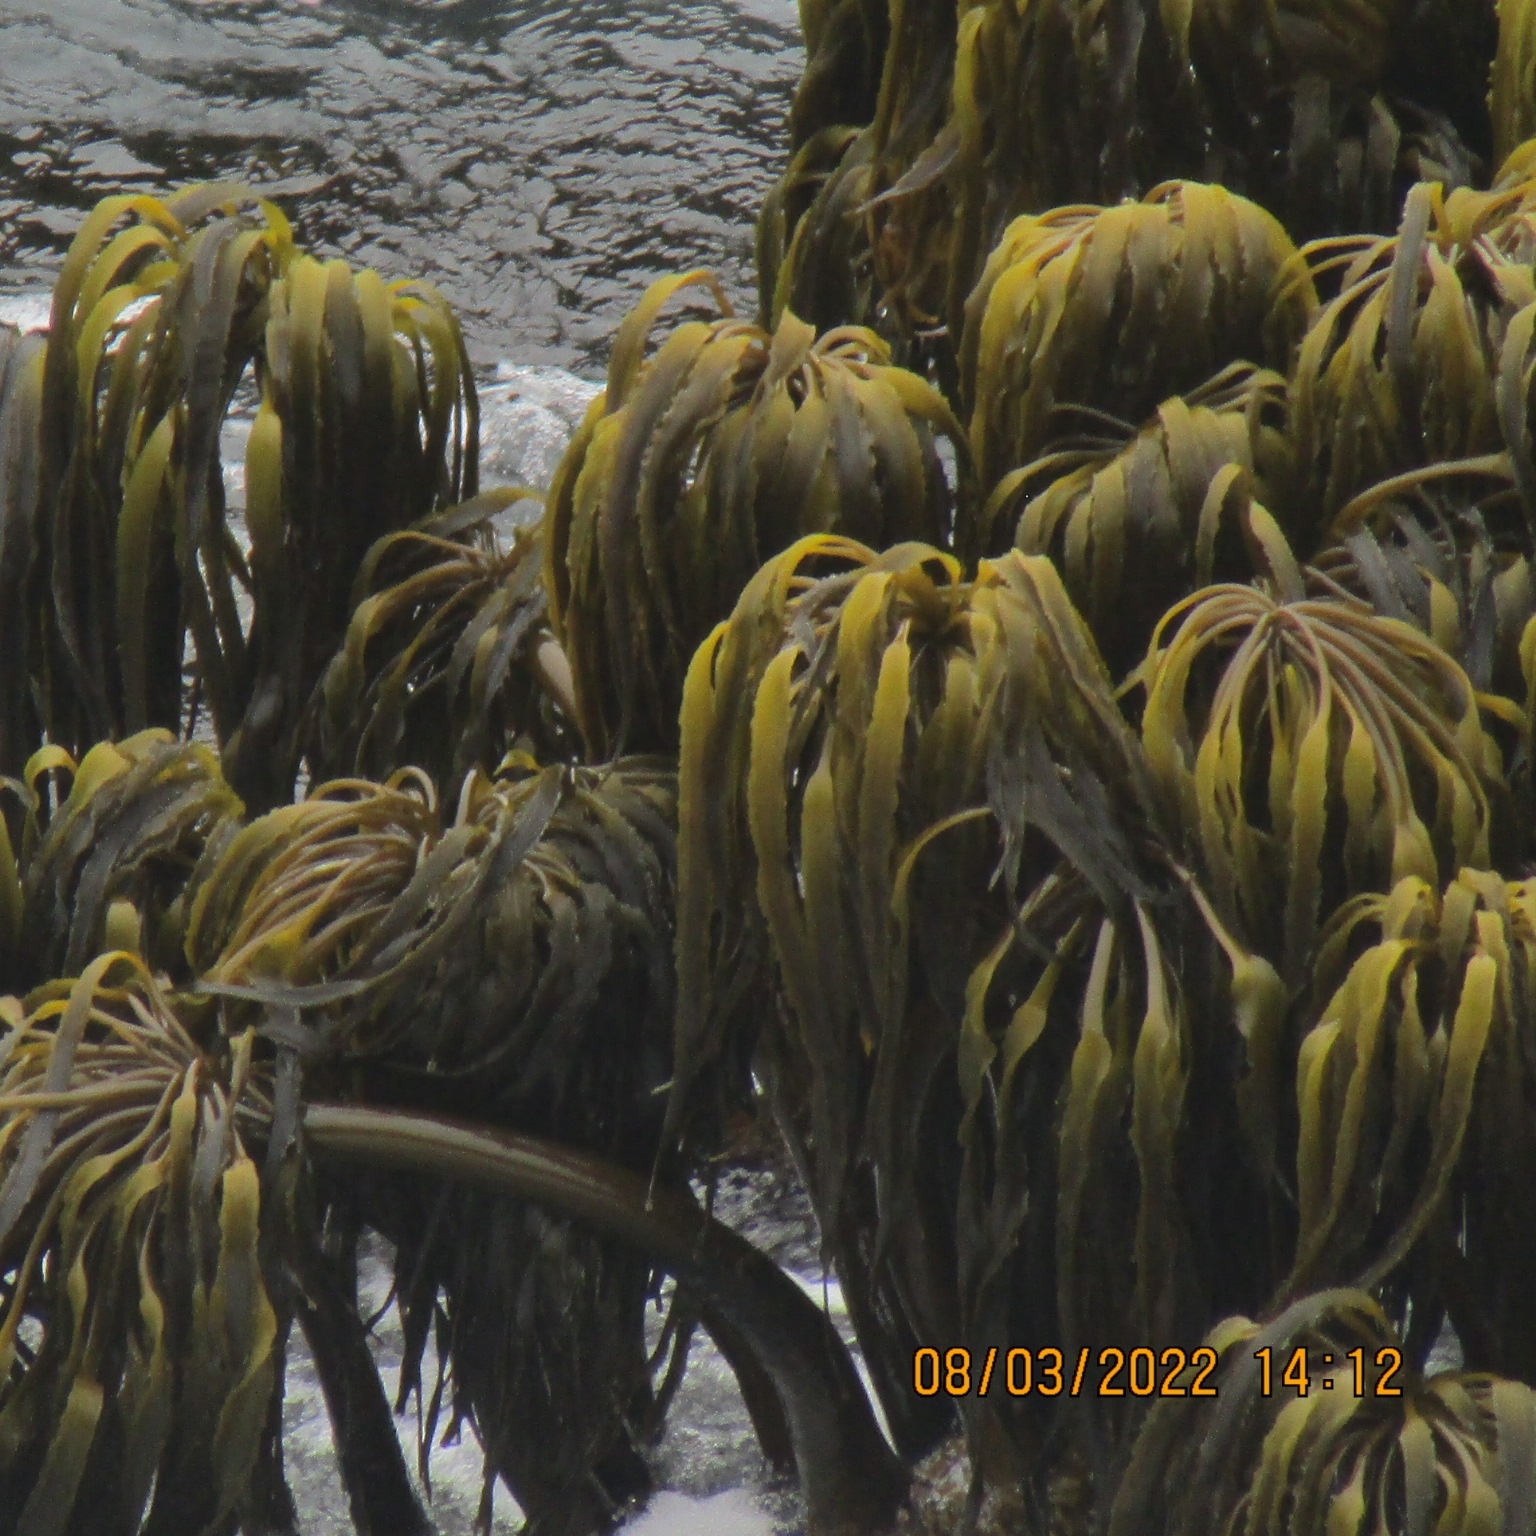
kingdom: Chromista
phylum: Ochrophyta
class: Phaeophyceae
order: Laminariales
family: Laminariaceae
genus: Postelsia
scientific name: Postelsia palmiformis
